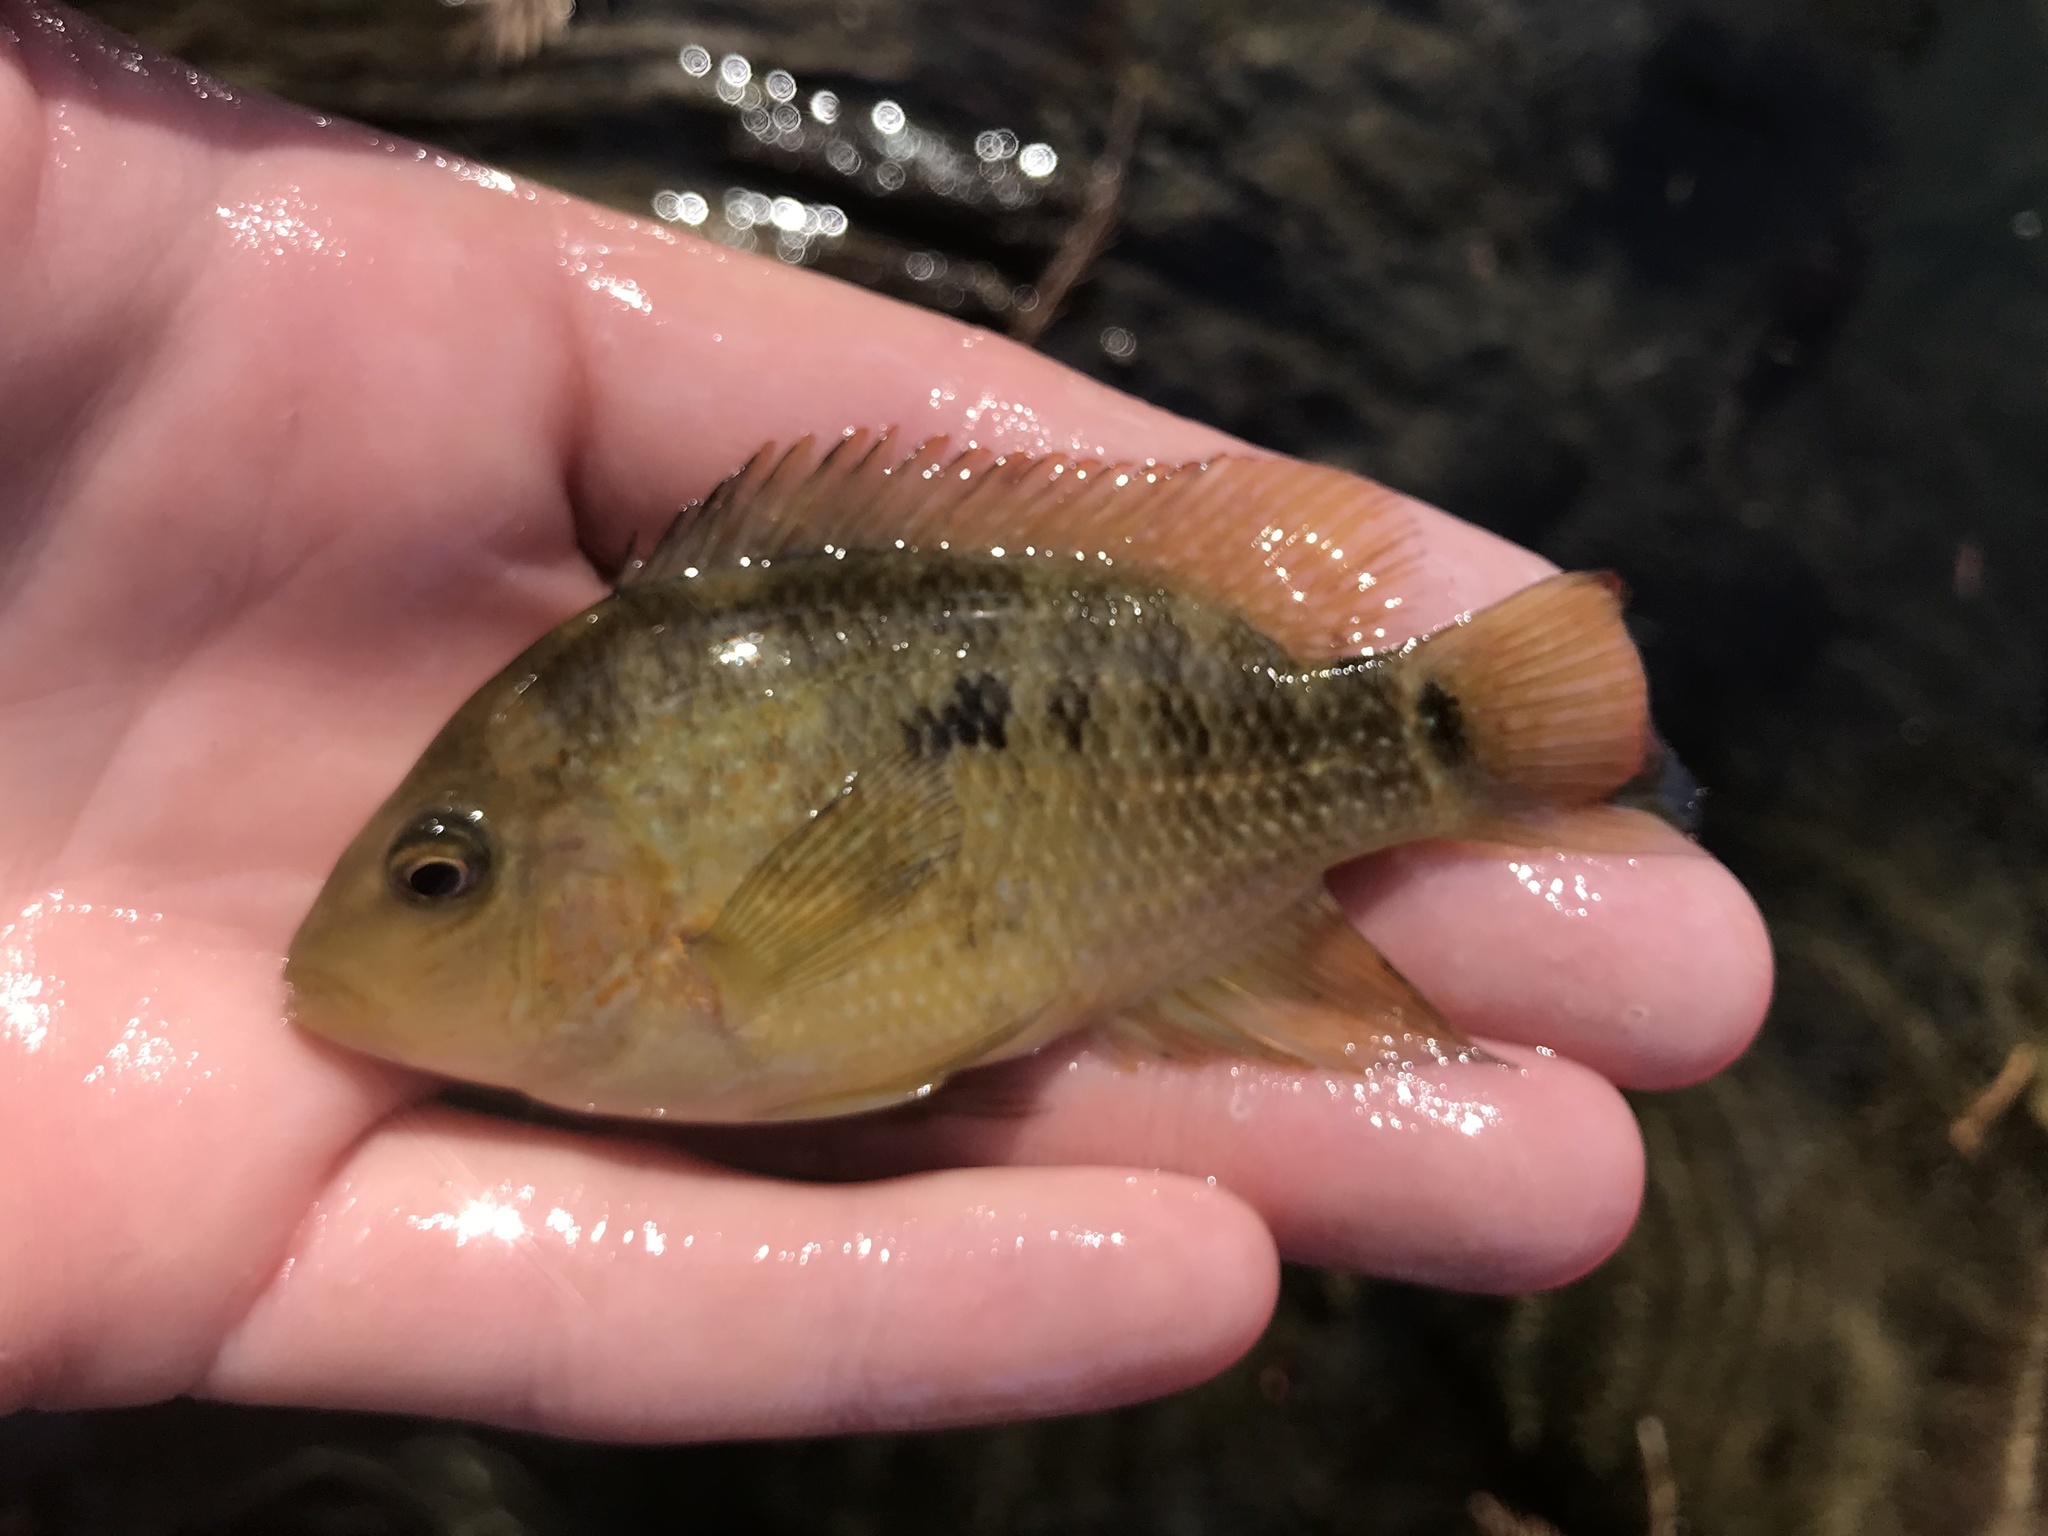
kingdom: Animalia
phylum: Chordata
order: Perciformes
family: Cichlidae
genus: Herichthys
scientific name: Herichthys cyanoguttatus
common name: Rio grande cichlid
